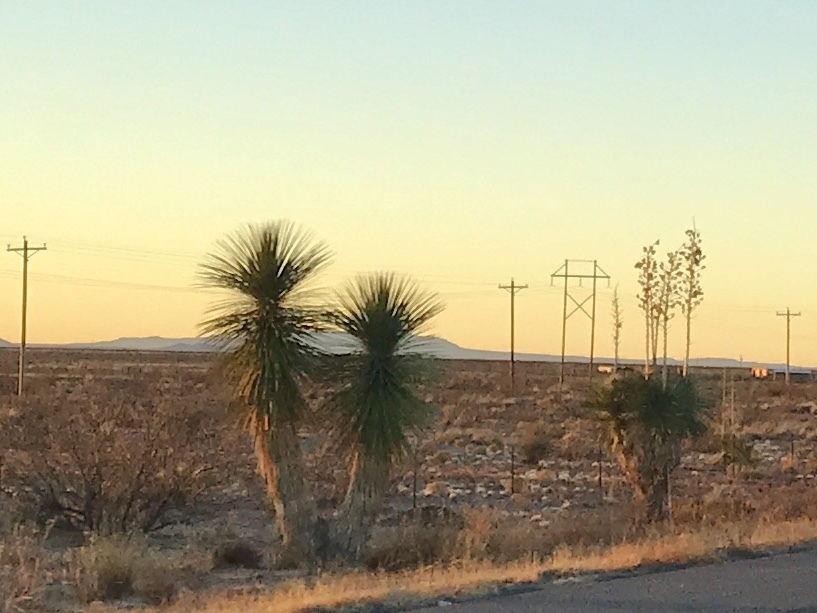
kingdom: Plantae
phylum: Tracheophyta
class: Liliopsida
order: Asparagales
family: Asparagaceae
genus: Yucca
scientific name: Yucca elata
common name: Palmella
